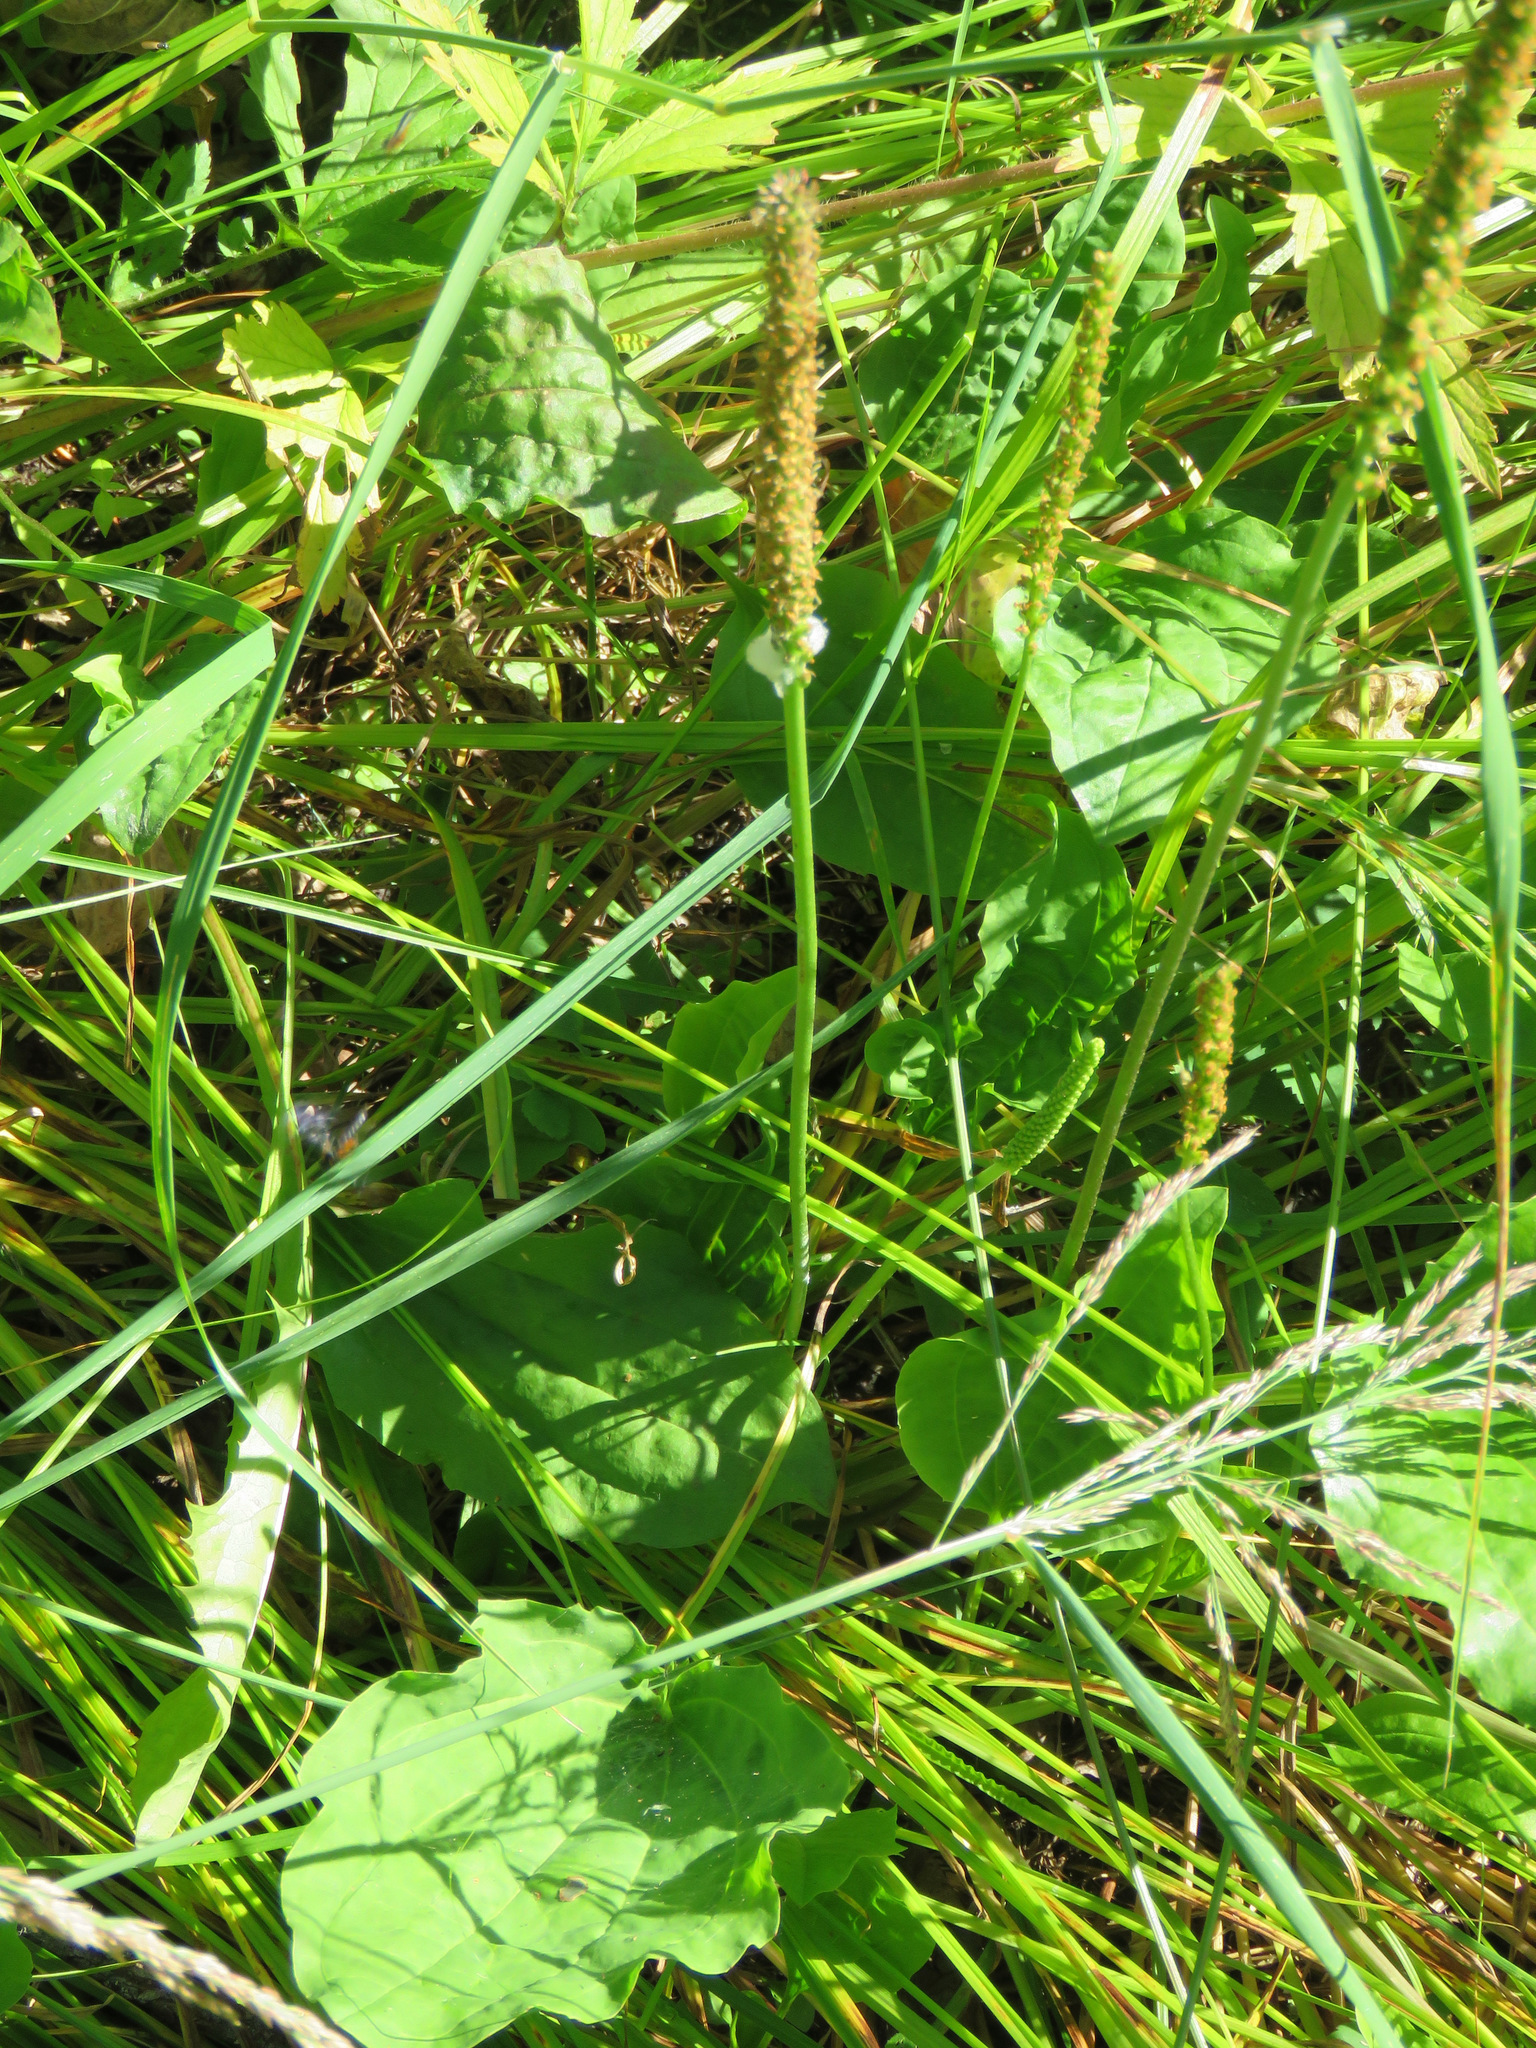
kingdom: Plantae
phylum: Tracheophyta
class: Magnoliopsida
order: Lamiales
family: Plantaginaceae
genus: Plantago
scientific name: Plantago major
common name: Common plantain
